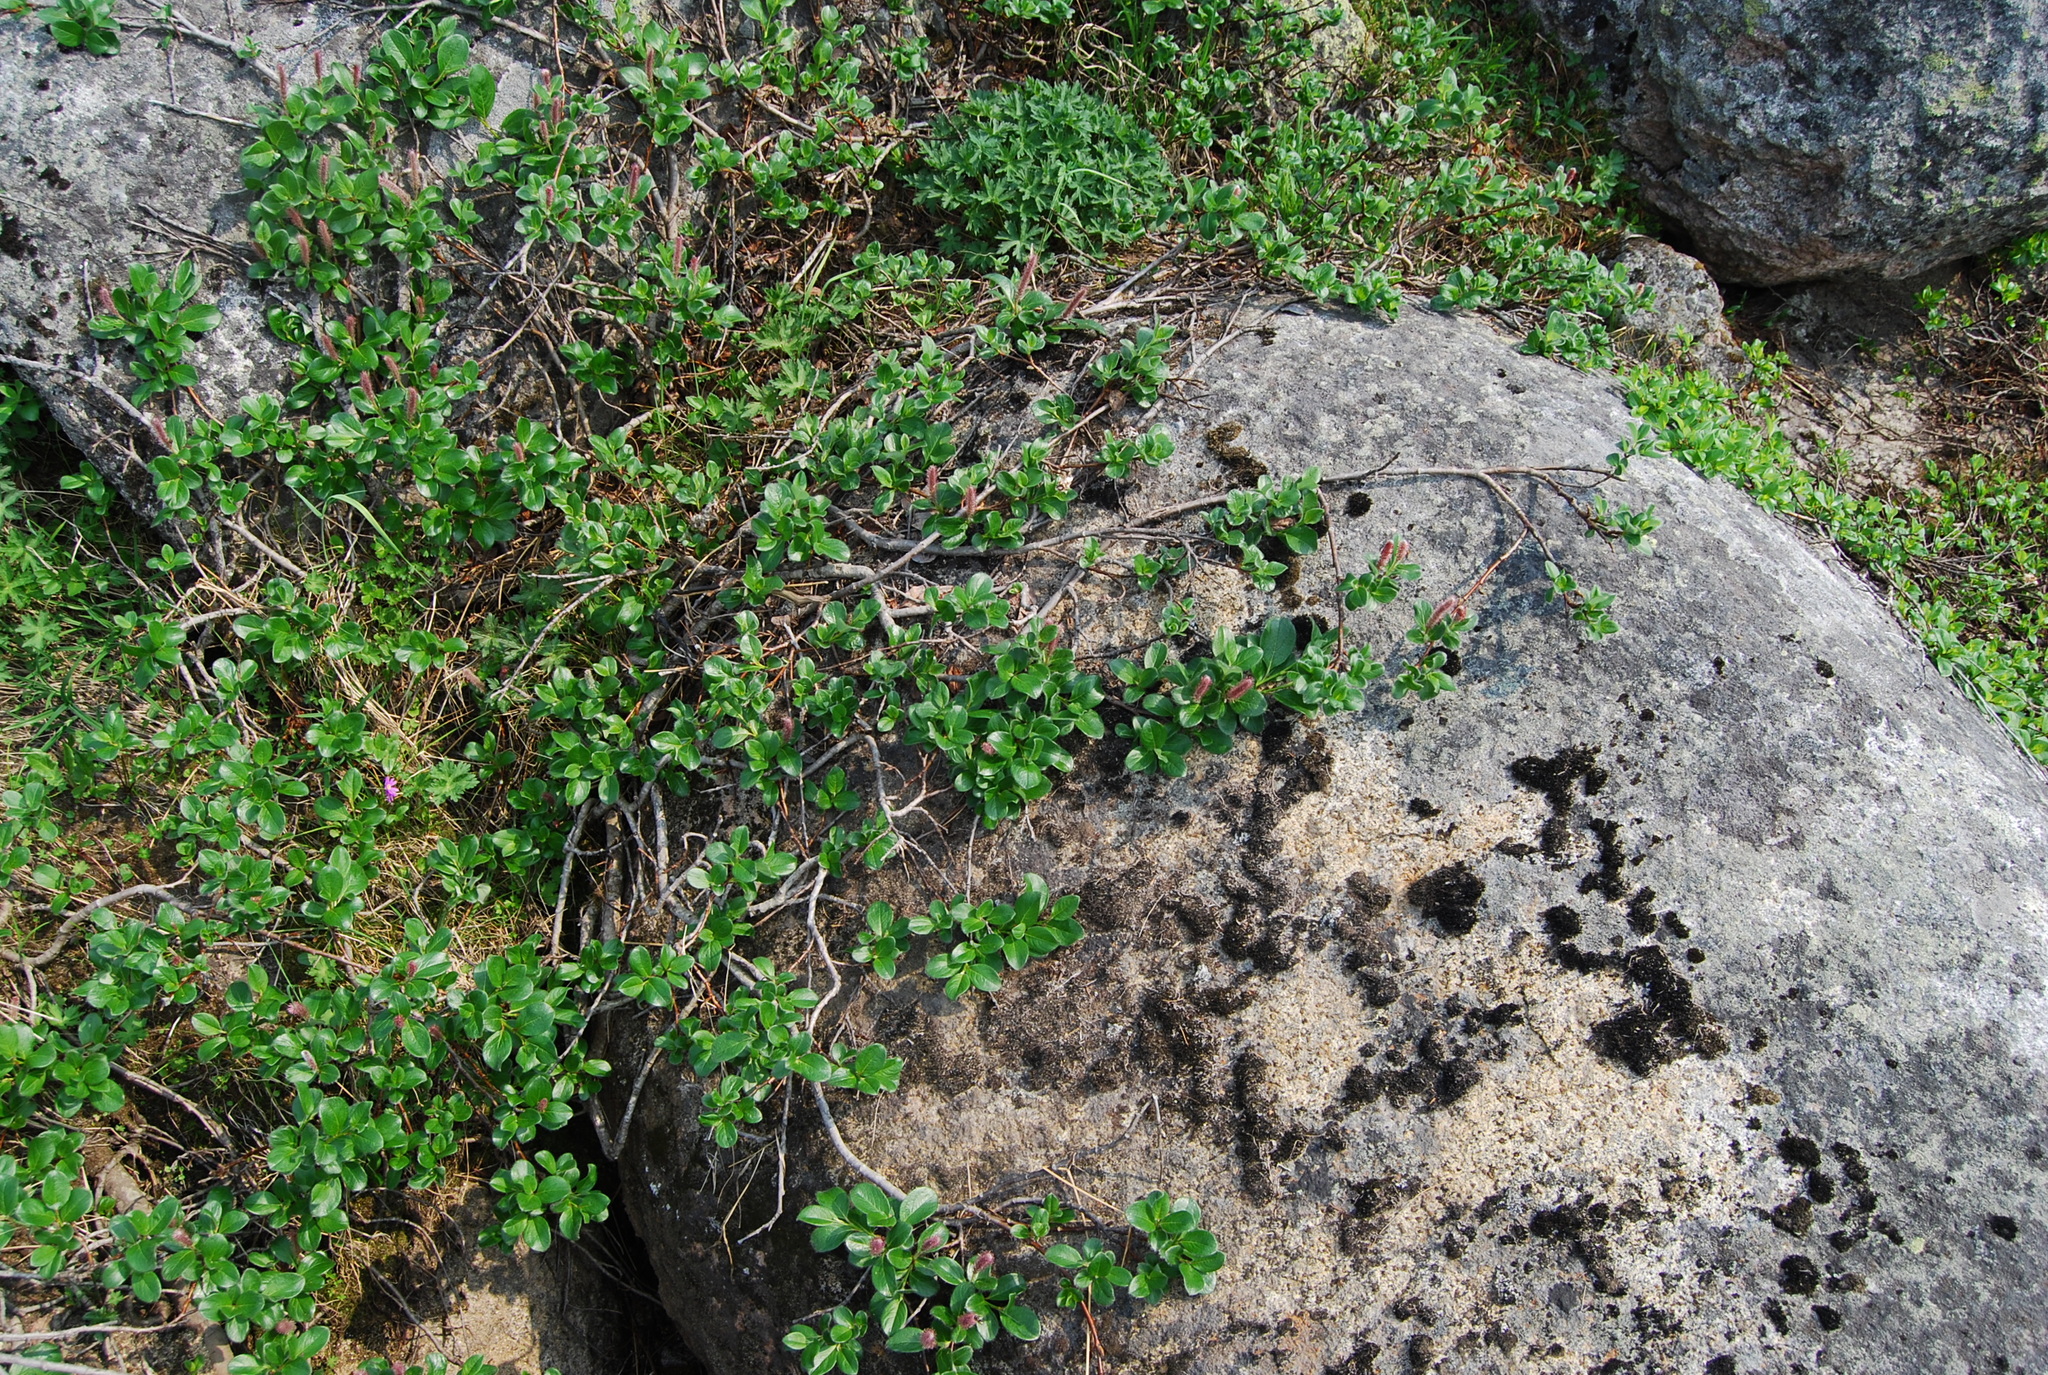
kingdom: Plantae
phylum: Tracheophyta
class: Magnoliopsida
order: Malpighiales
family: Salicaceae
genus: Salix
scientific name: Salix arctica
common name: Arctic willow
